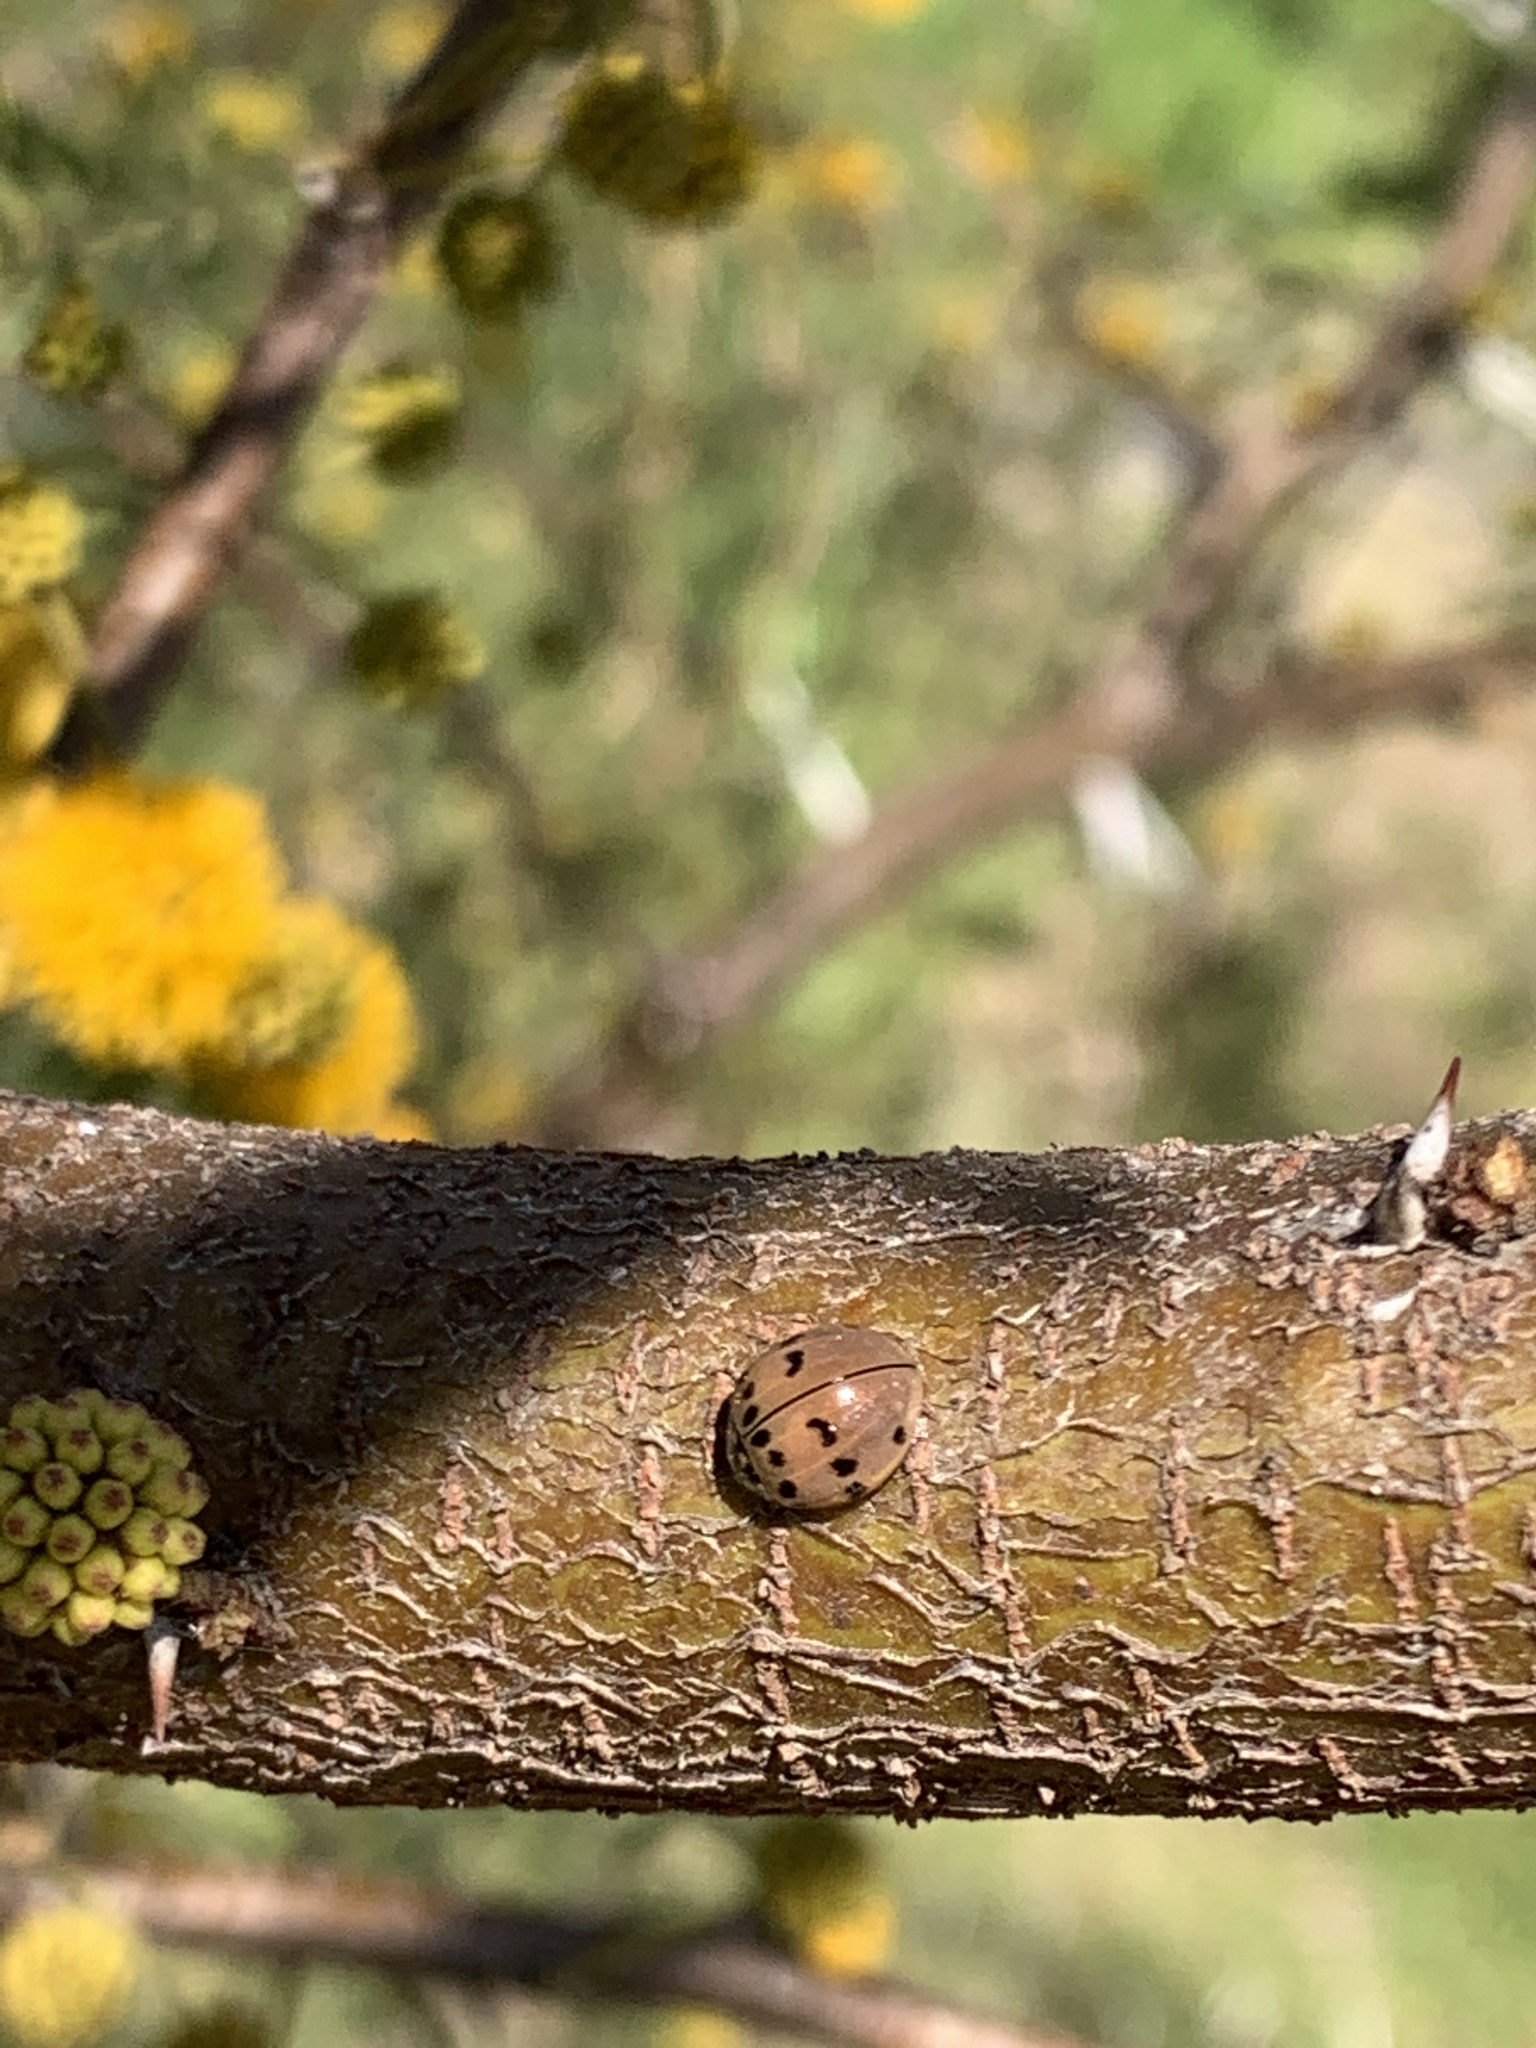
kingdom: Animalia
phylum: Arthropoda
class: Insecta
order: Coleoptera
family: Coccinellidae
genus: Olla
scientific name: Olla v-nigrum
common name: Ashy gray lady beetle
